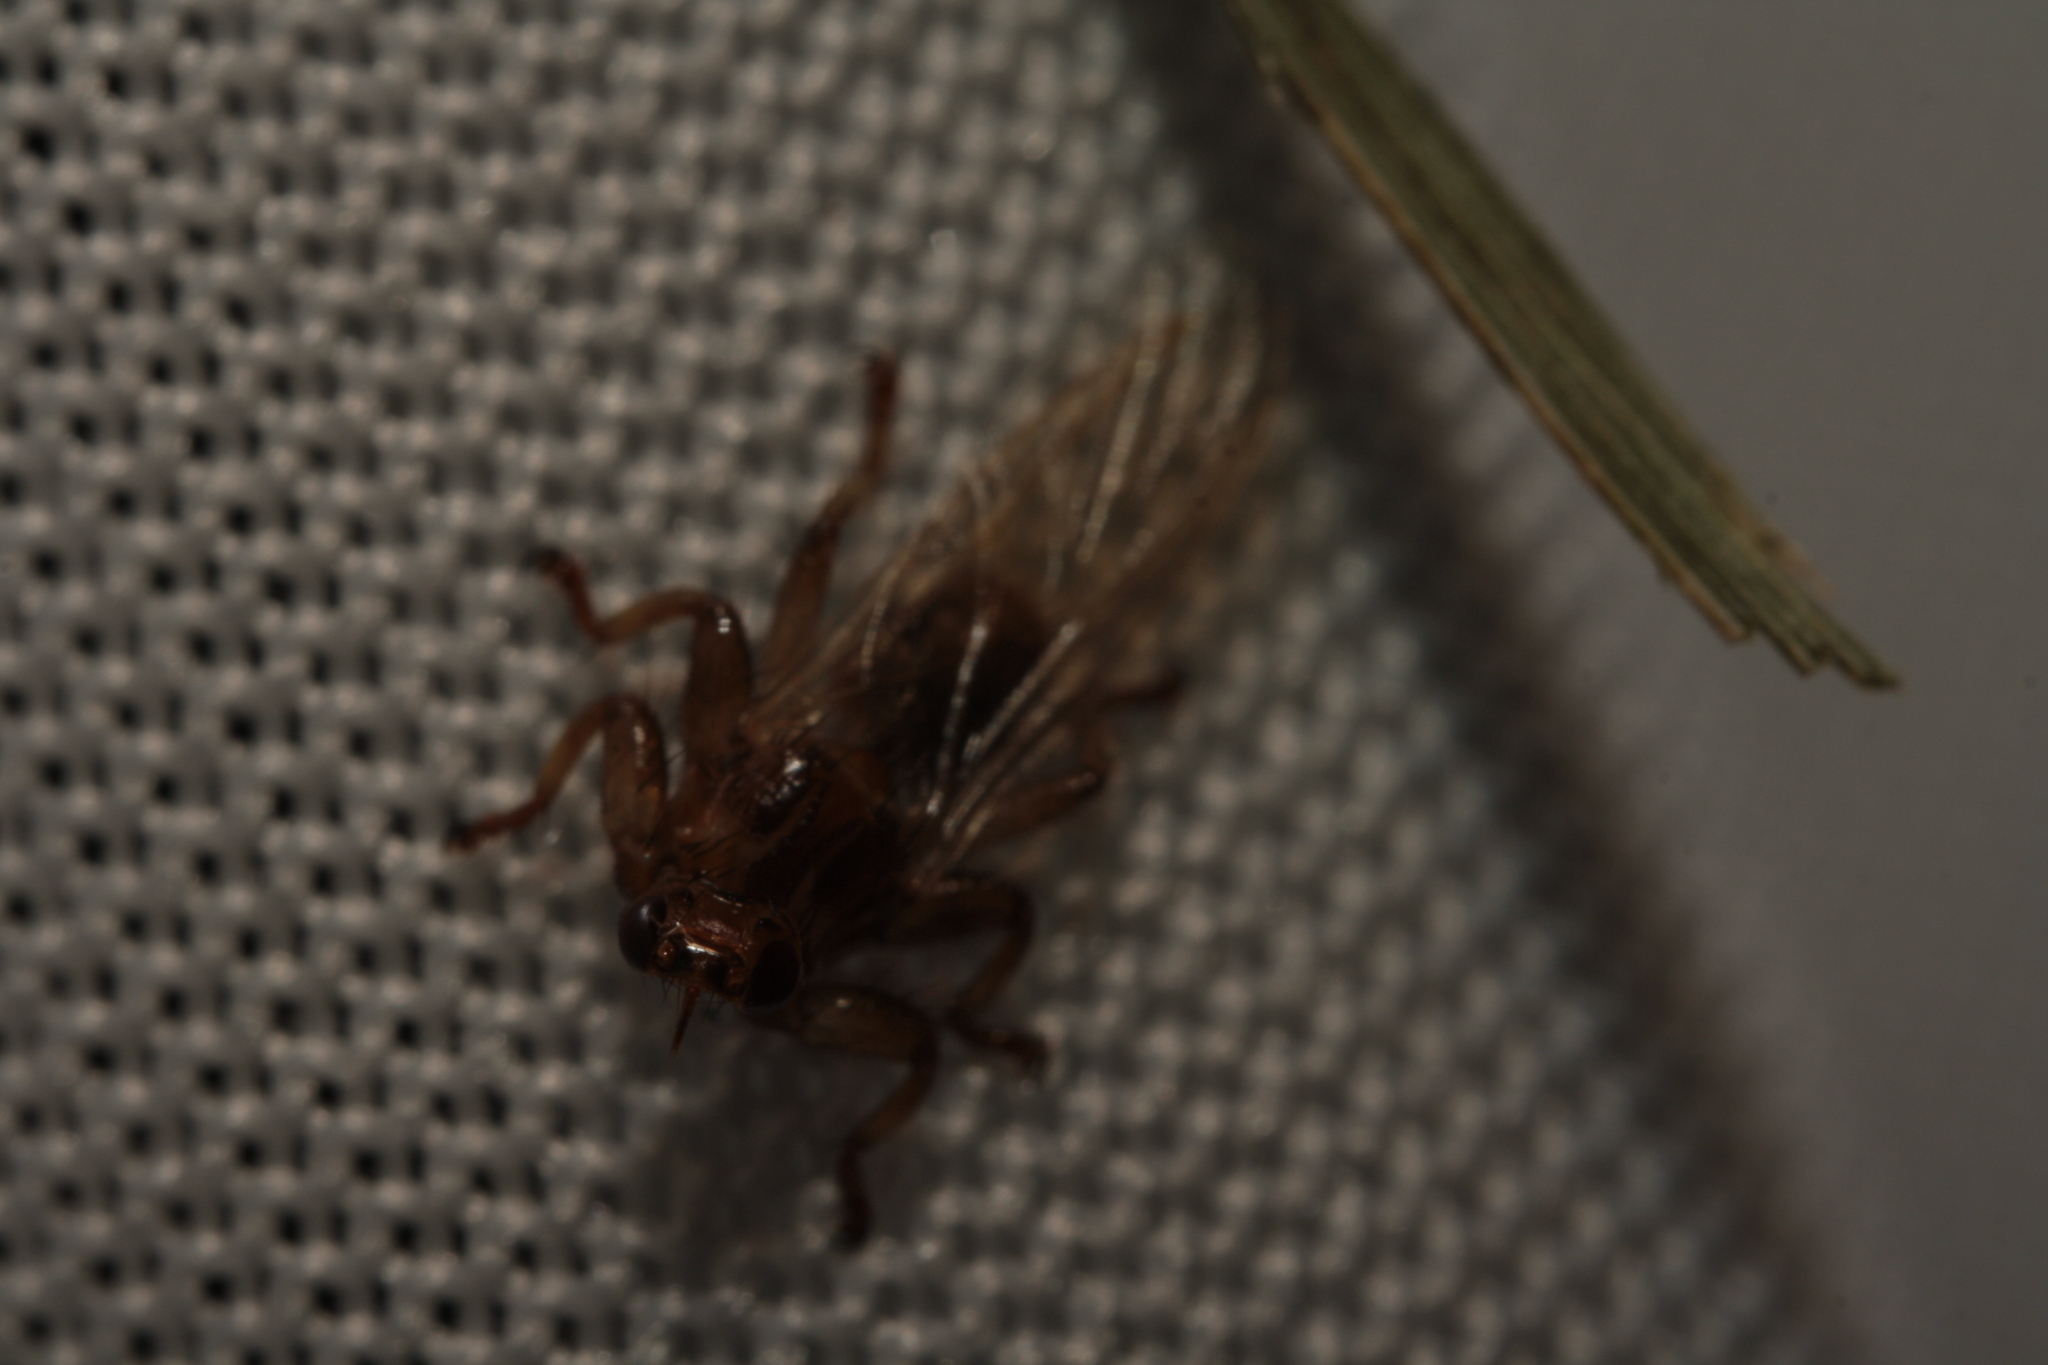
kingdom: Animalia
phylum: Arthropoda
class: Insecta
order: Diptera
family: Hippoboscidae
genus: Lipoptena
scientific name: Lipoptena cervi
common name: Deer ked
